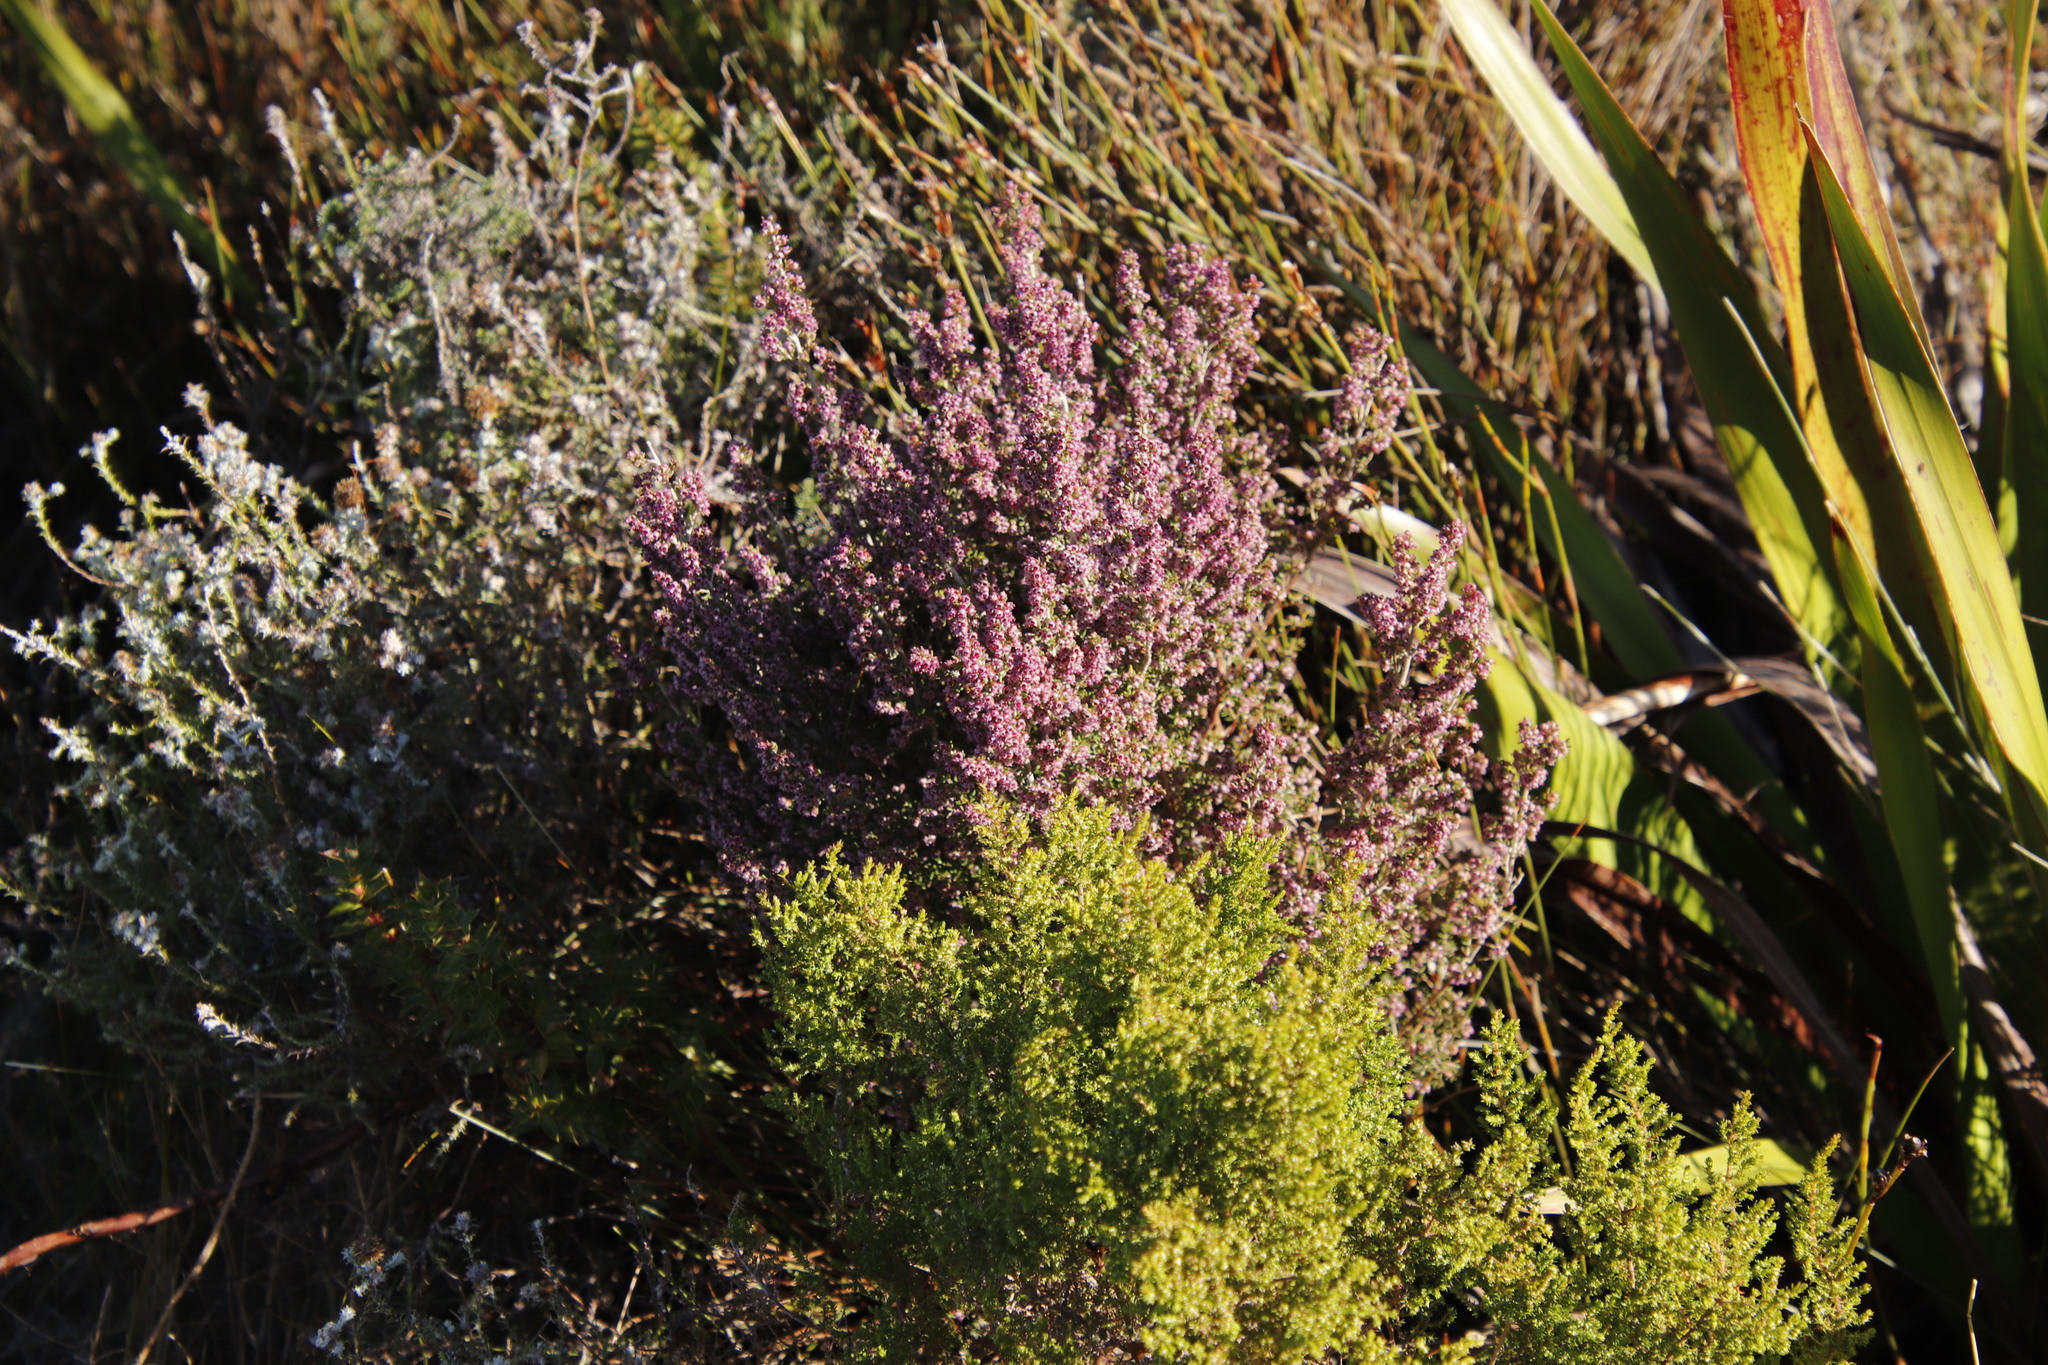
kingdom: Plantae
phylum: Tracheophyta
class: Magnoliopsida
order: Ericales
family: Ericaceae
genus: Erica
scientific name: Erica hispidula
